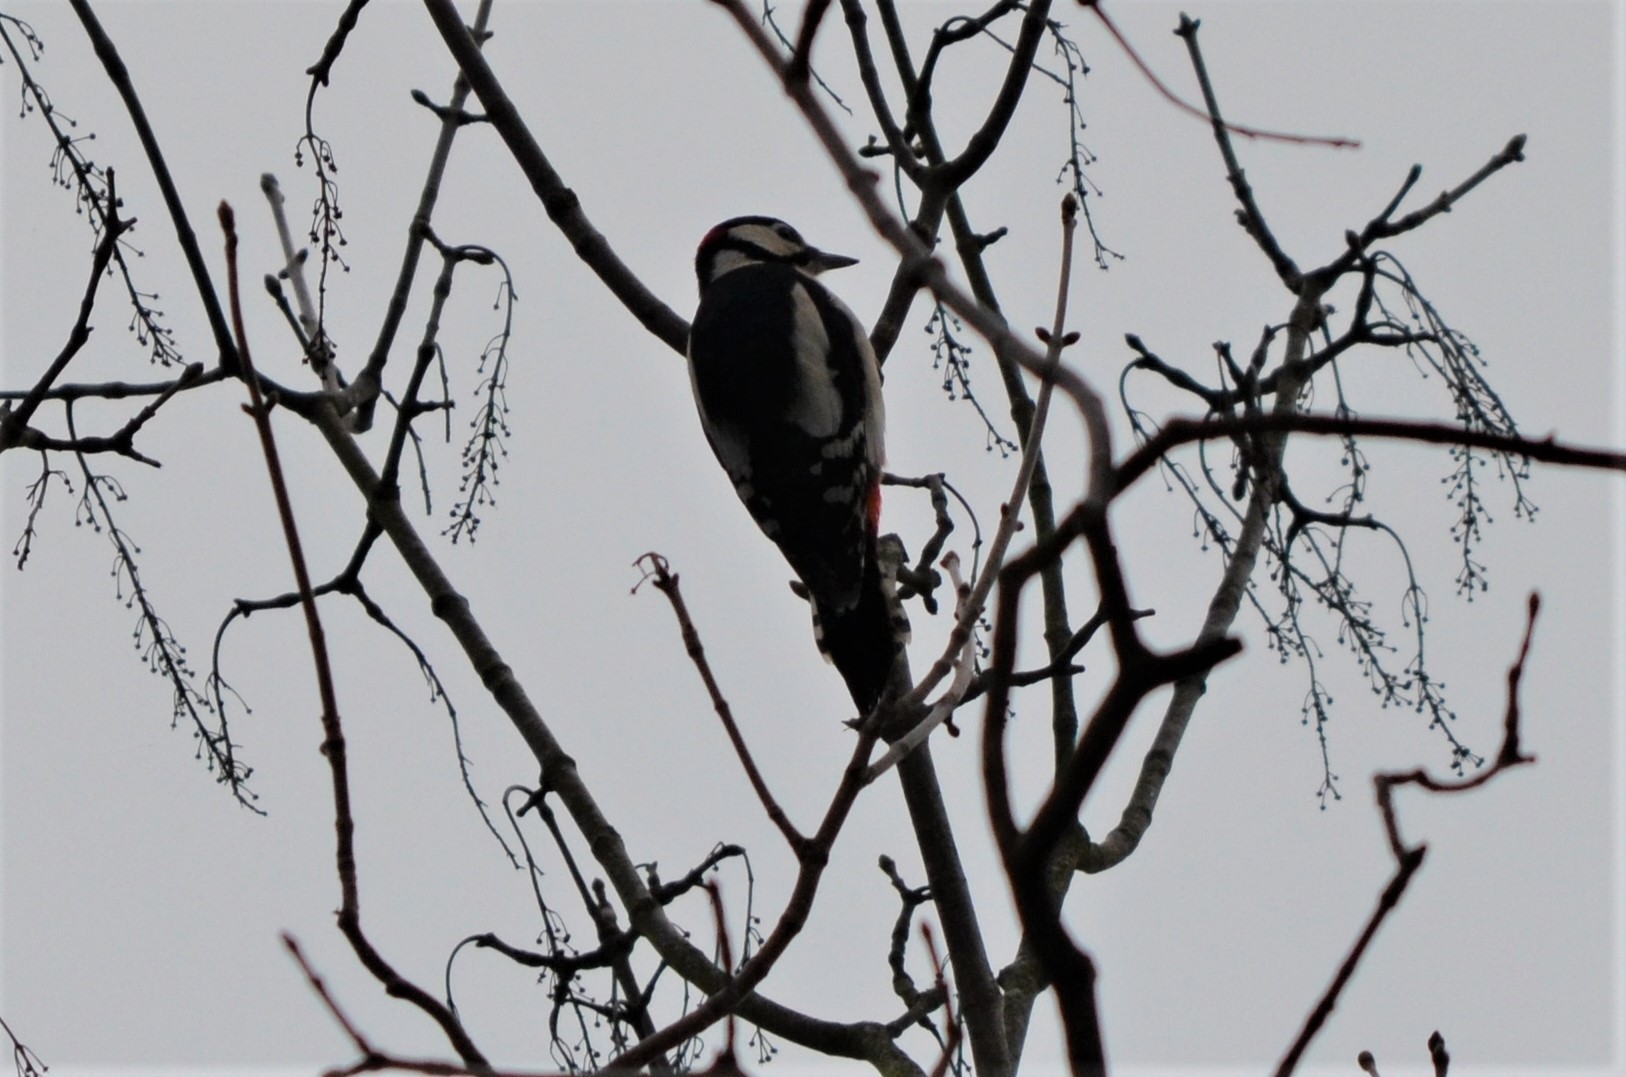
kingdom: Animalia
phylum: Chordata
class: Aves
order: Piciformes
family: Picidae
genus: Dendrocopos
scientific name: Dendrocopos major
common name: Great spotted woodpecker
